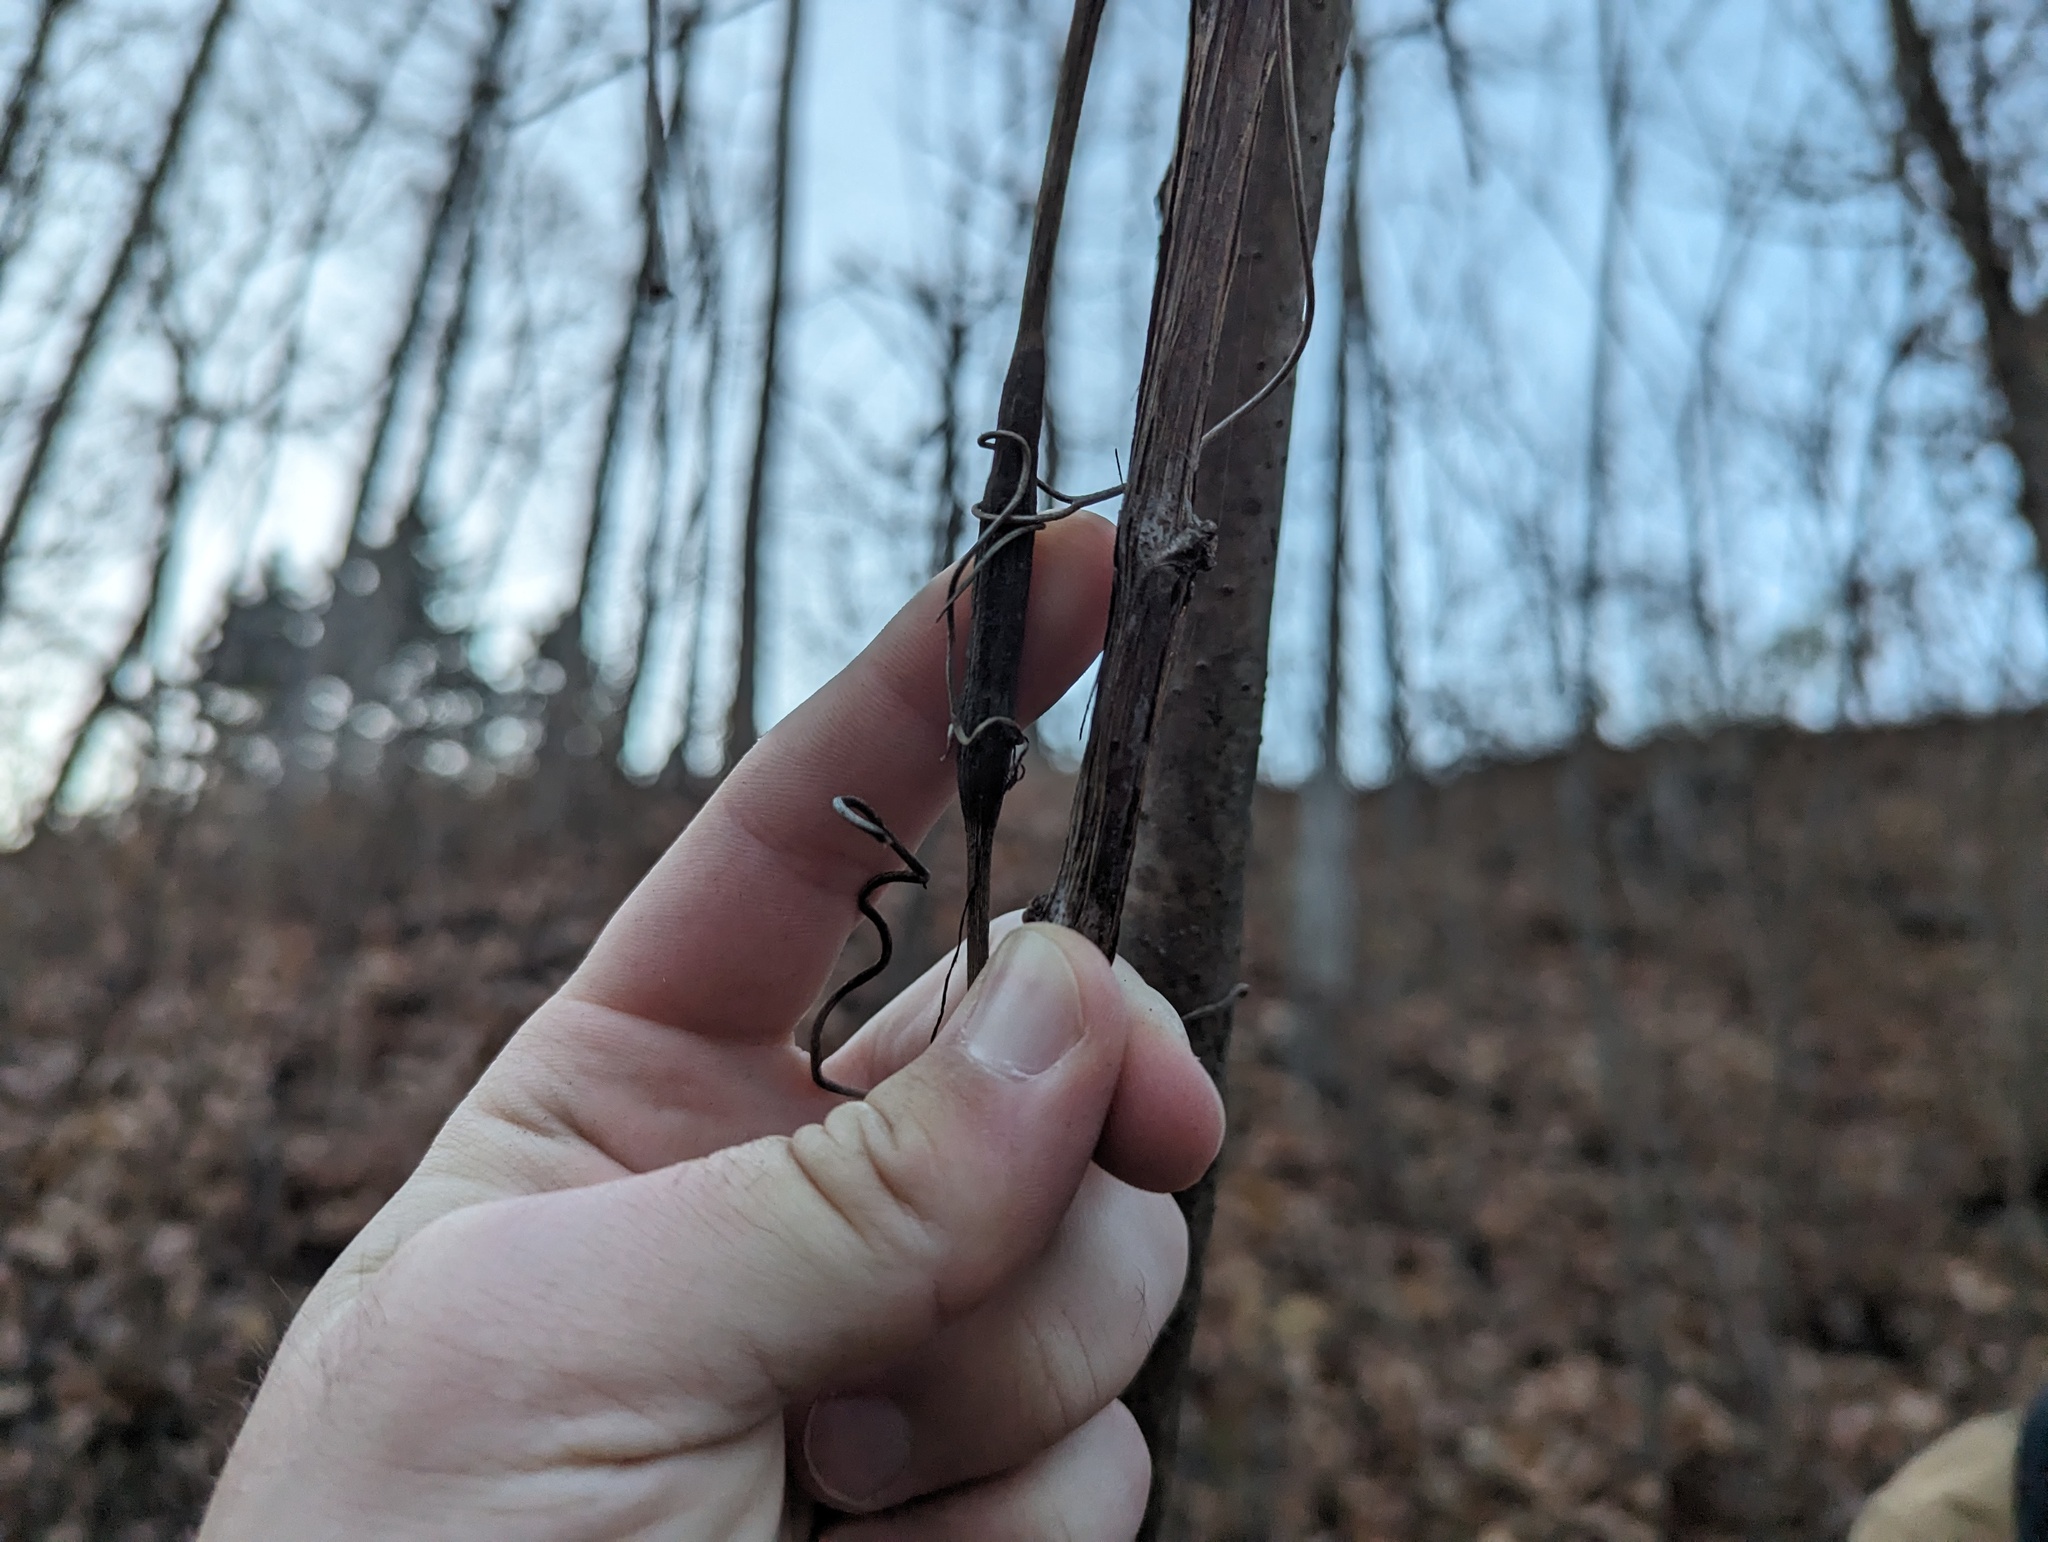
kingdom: Animalia
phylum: Arthropoda
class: Insecta
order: Diptera
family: Cecidomyiidae
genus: Neolasioptera
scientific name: Neolasioptera vitinea
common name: Grape leaf petiole gall
